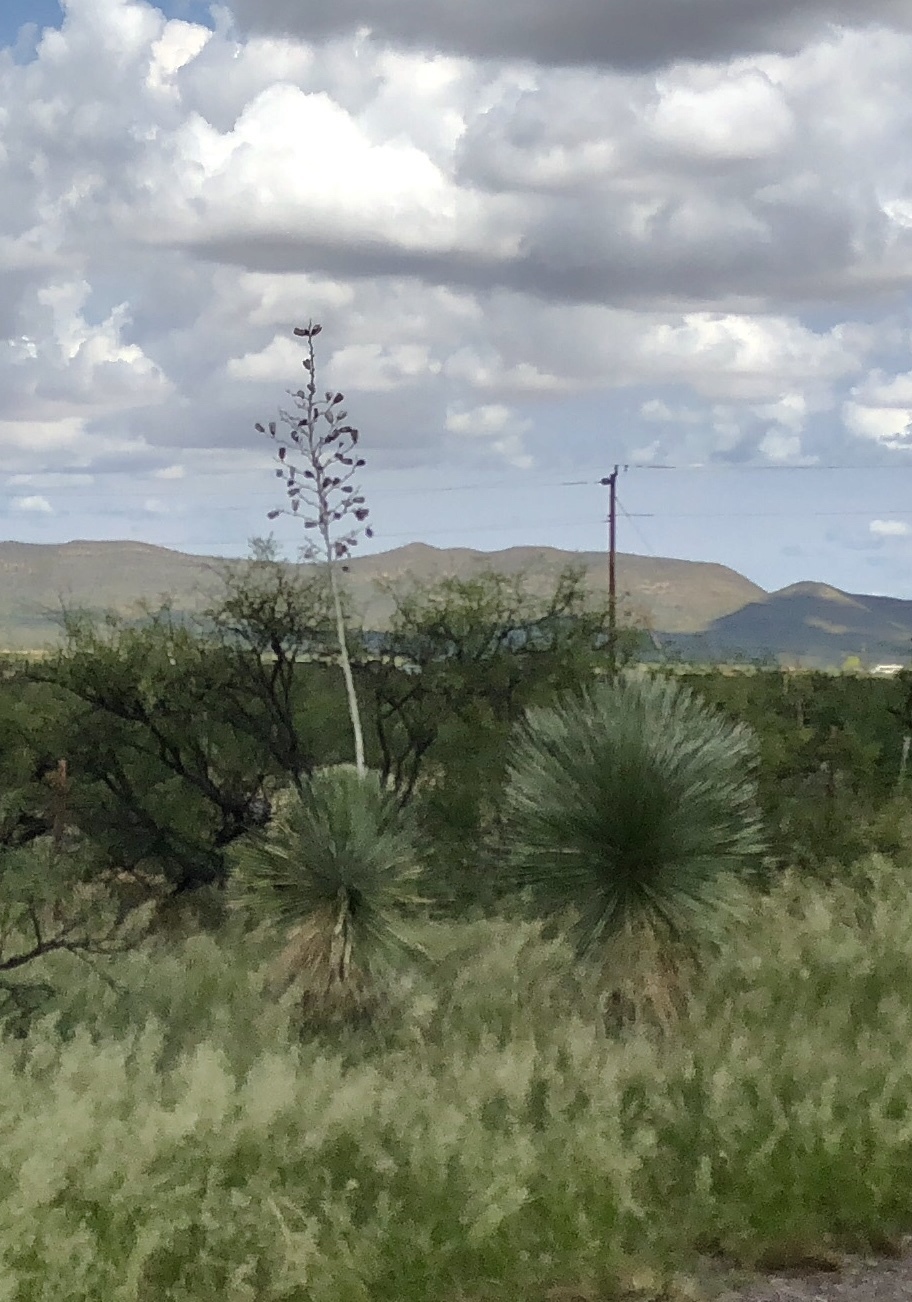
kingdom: Plantae
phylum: Tracheophyta
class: Liliopsida
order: Asparagales
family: Asparagaceae
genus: Yucca
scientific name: Yucca elata
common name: Palmella
